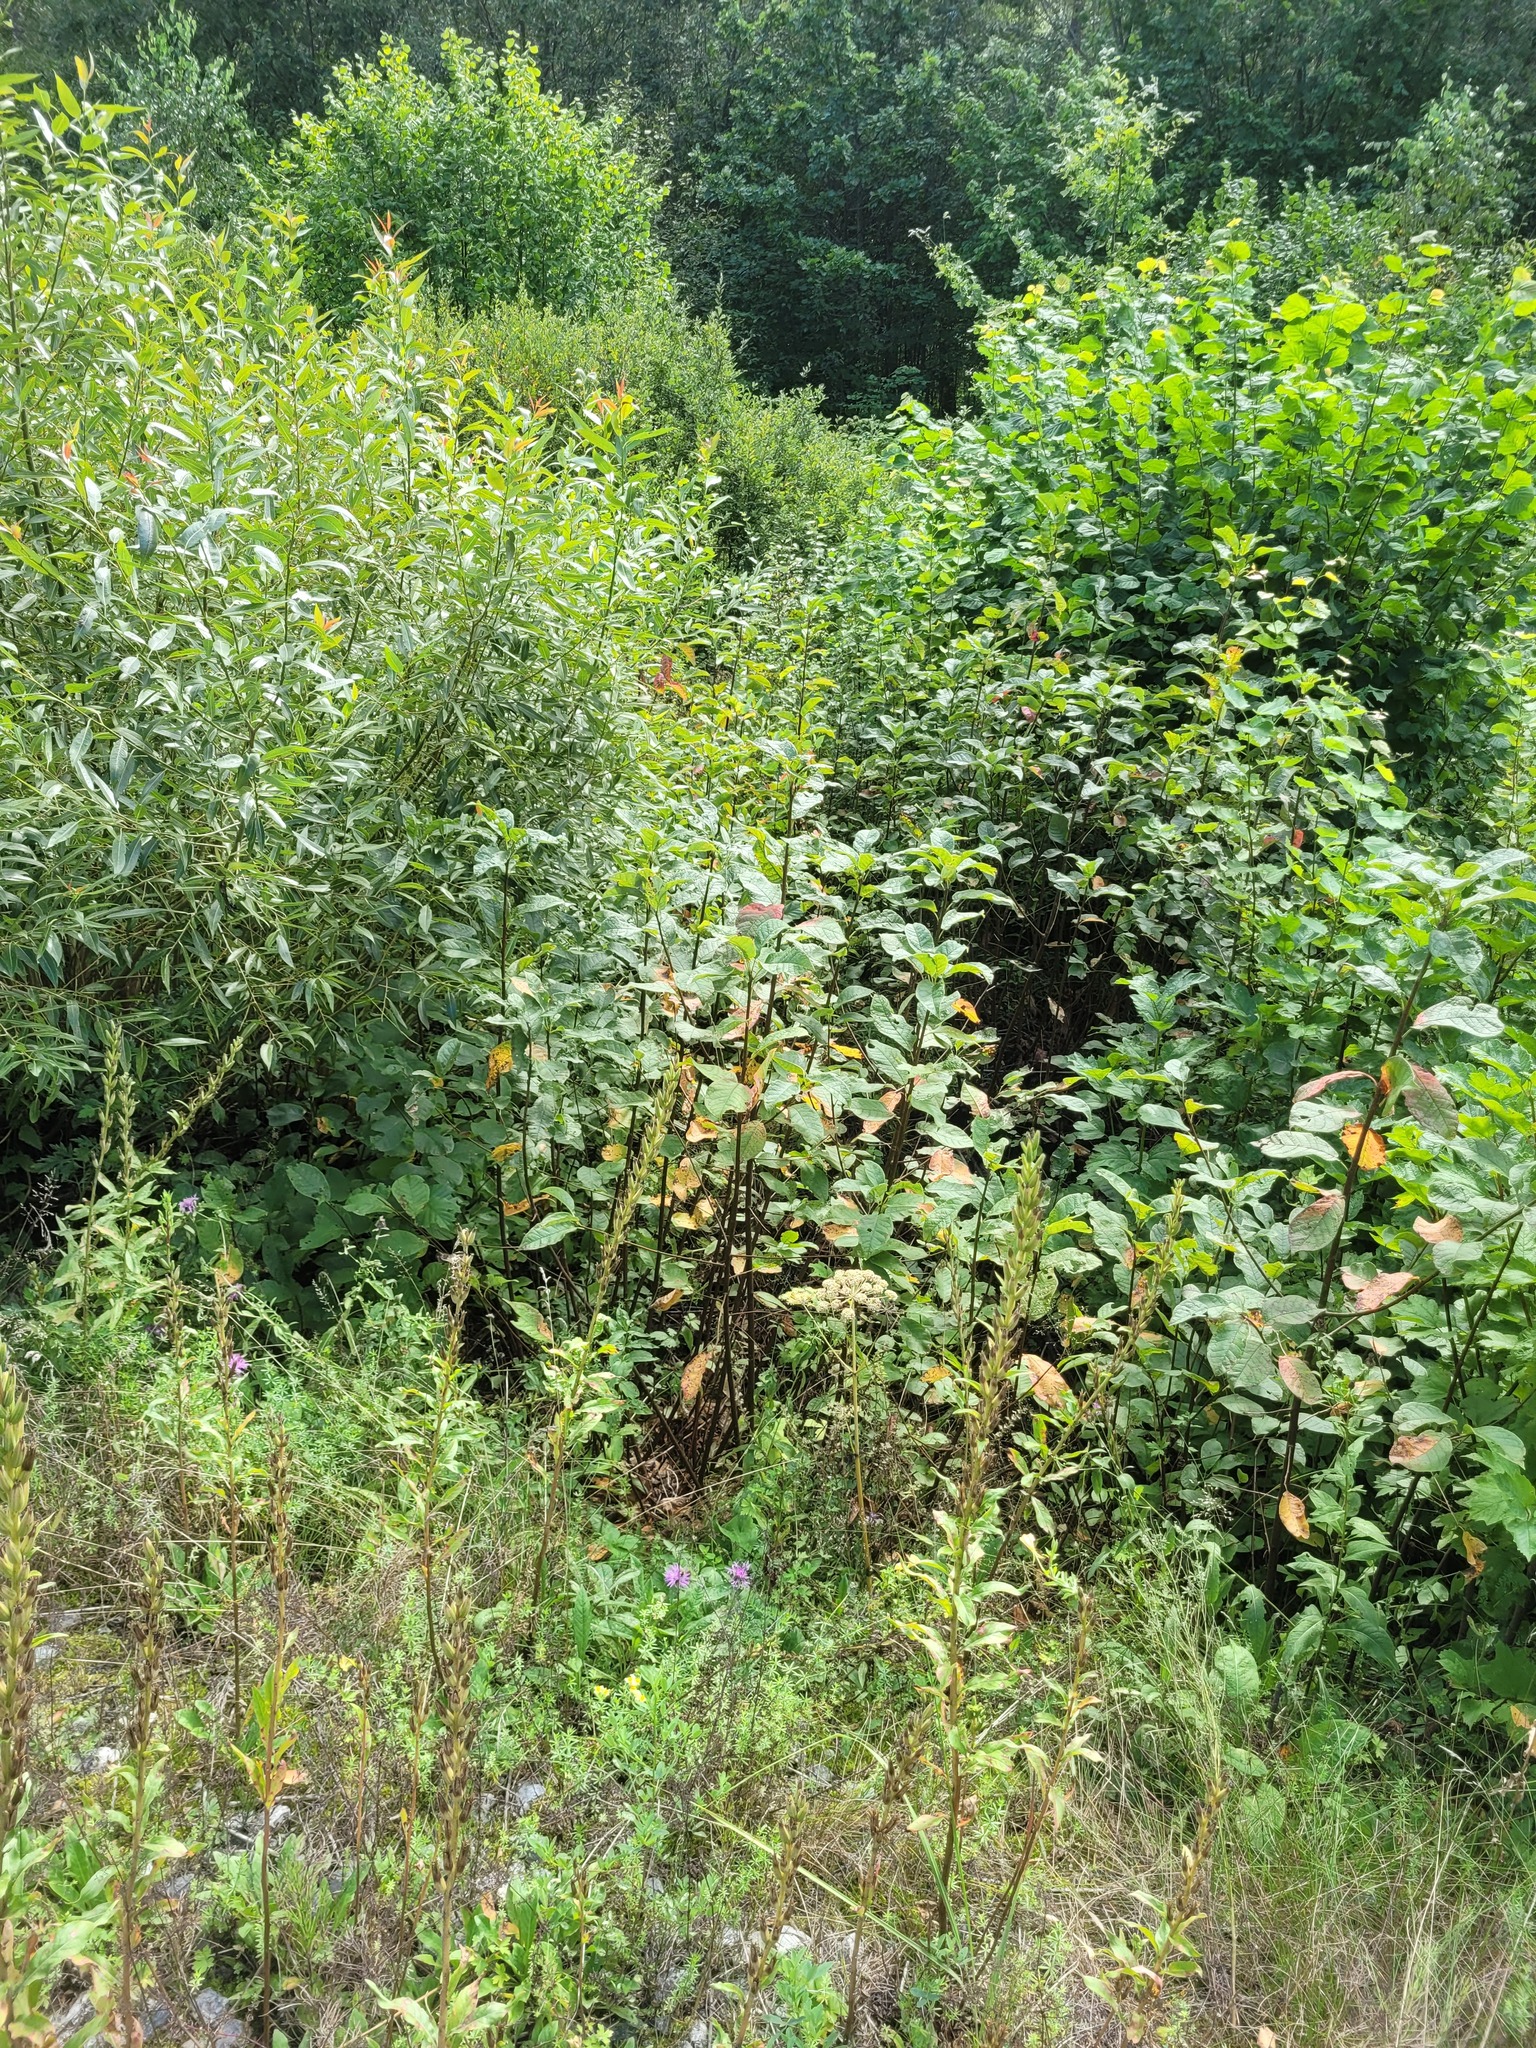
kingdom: Plantae
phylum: Tracheophyta
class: Magnoliopsida
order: Rosales
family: Rosaceae
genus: Prunus
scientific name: Prunus padus
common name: Bird cherry
